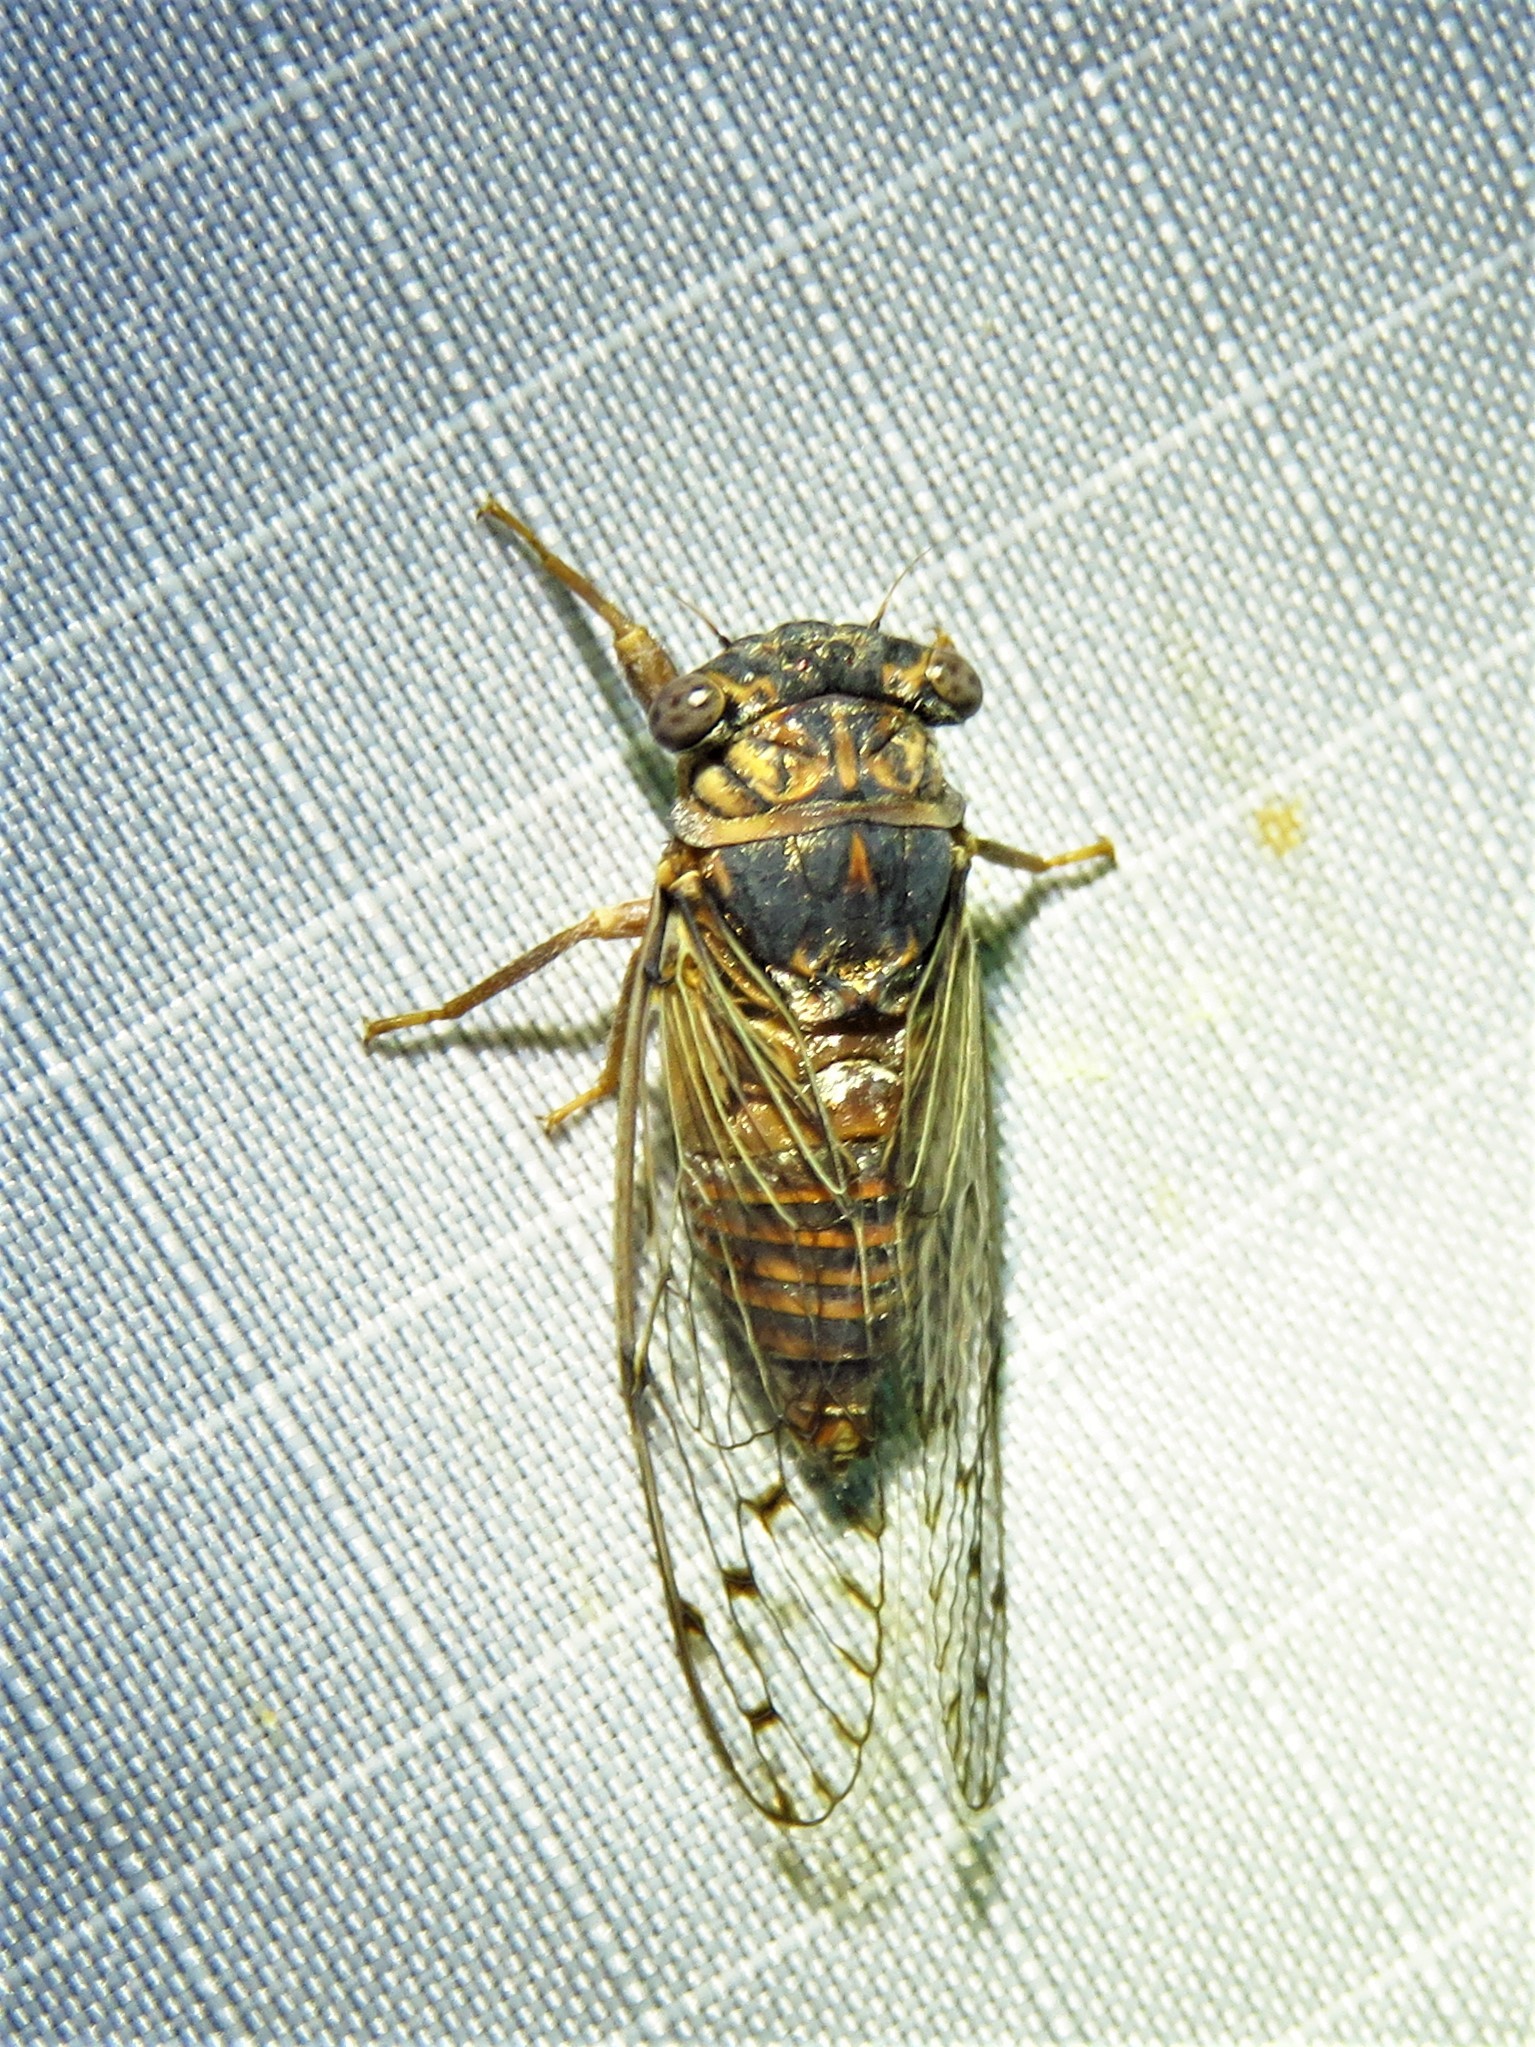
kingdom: Animalia
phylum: Arthropoda
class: Insecta
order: Hemiptera
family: Cicadidae
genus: Pacarina
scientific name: Pacarina puella
